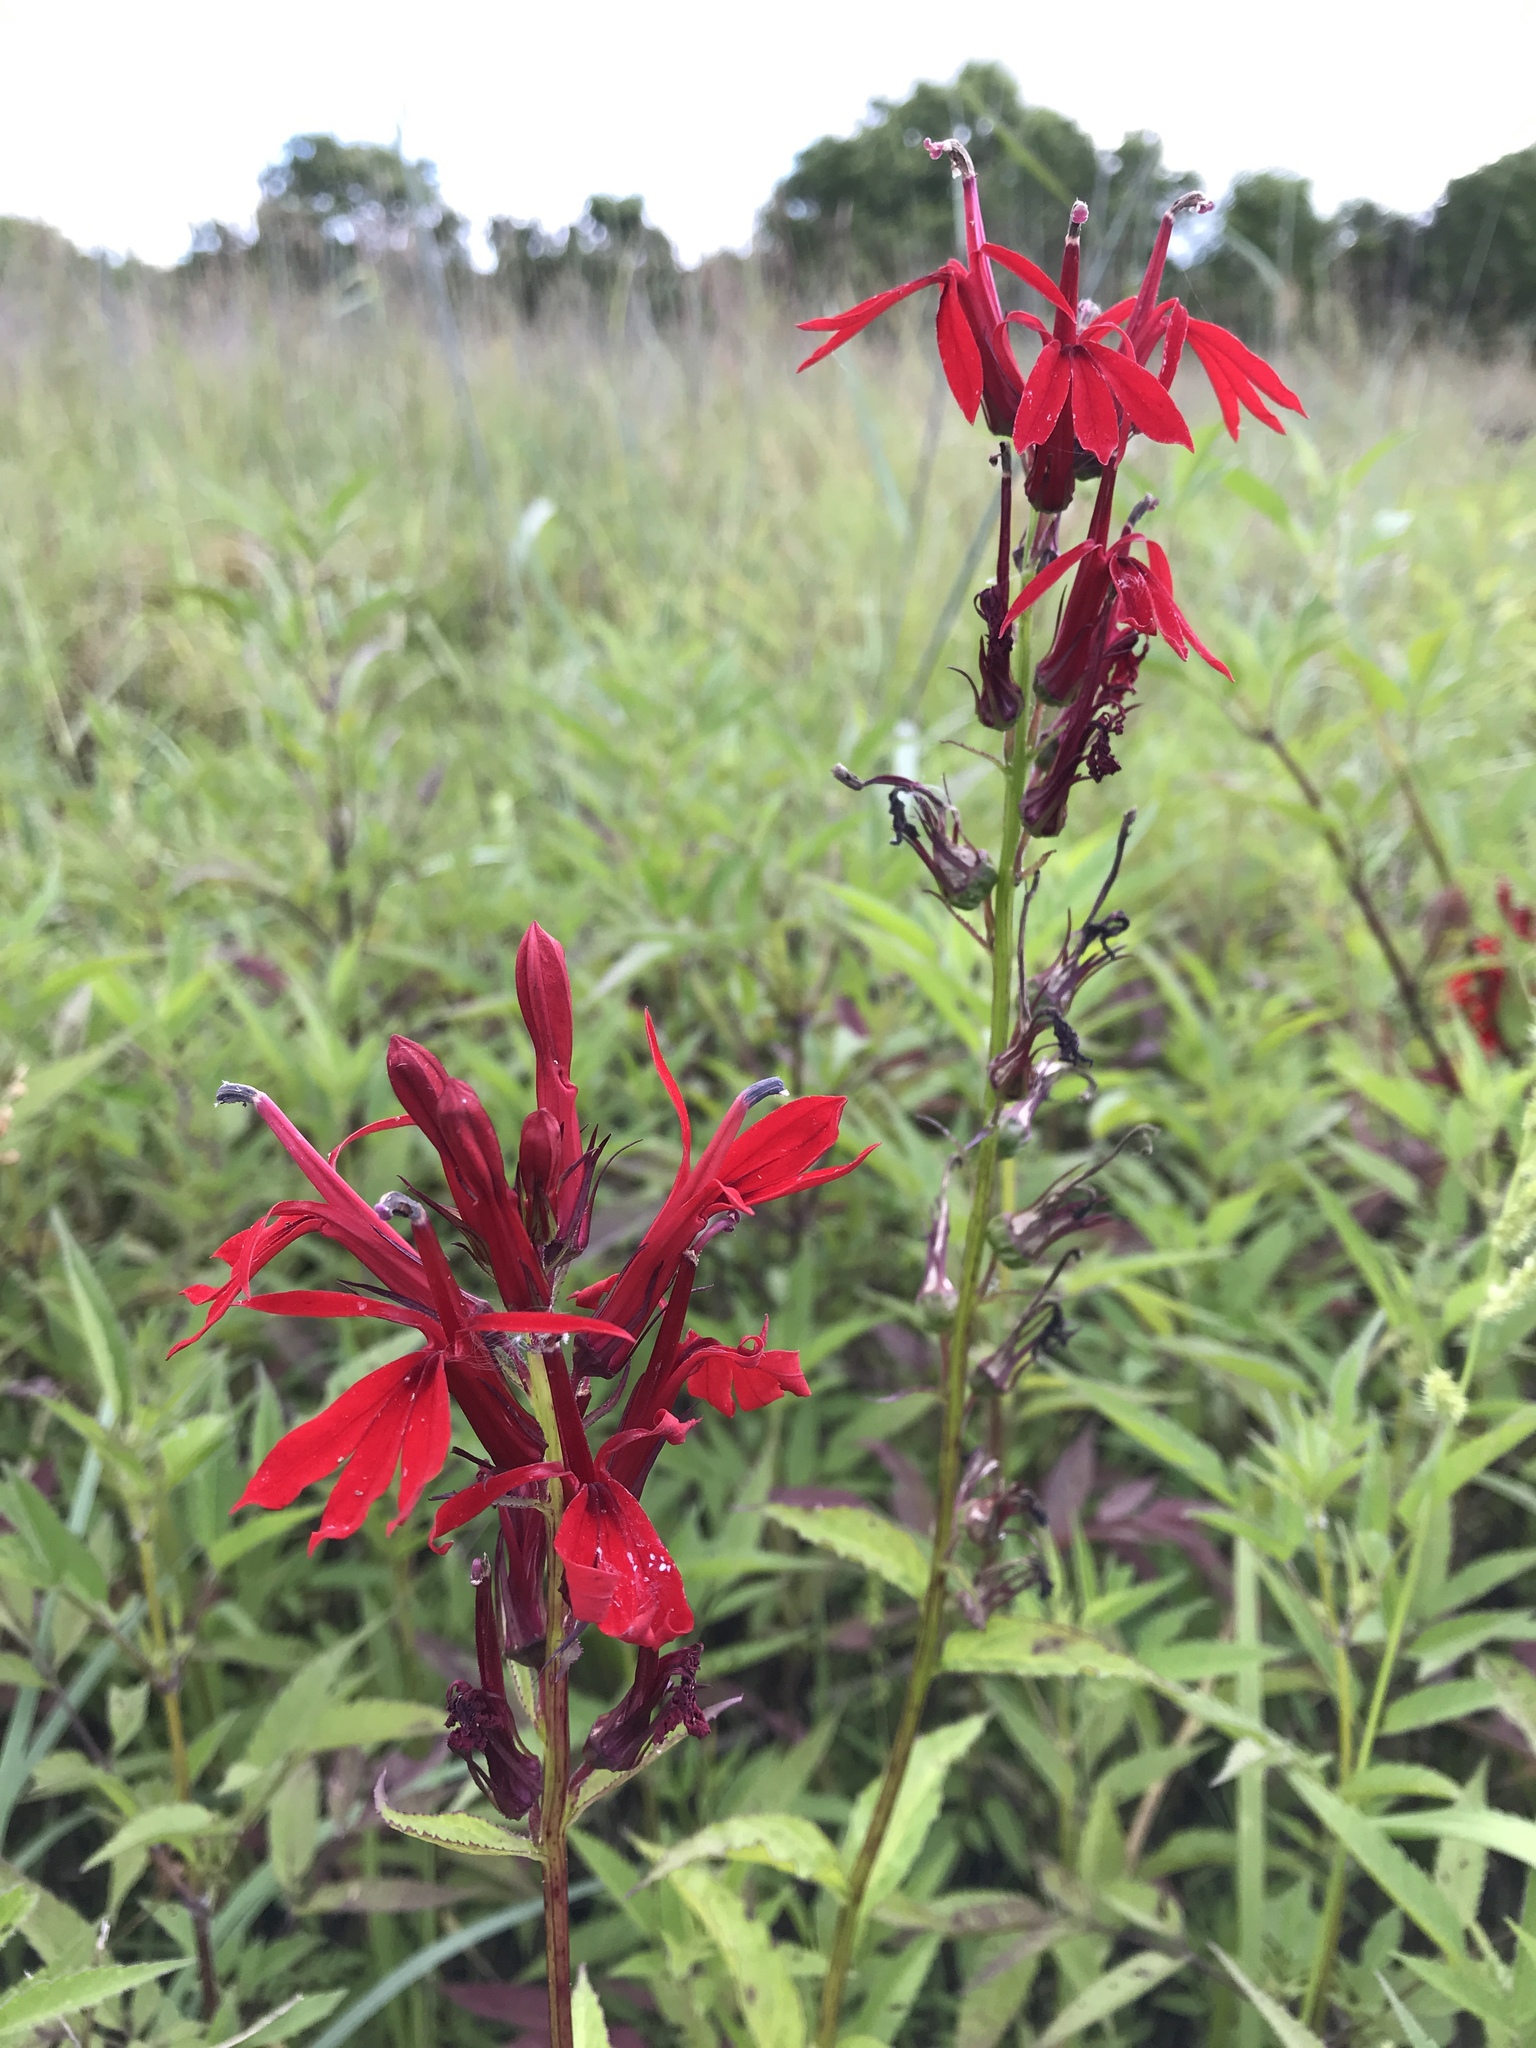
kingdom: Plantae
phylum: Tracheophyta
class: Magnoliopsida
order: Asterales
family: Campanulaceae
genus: Lobelia
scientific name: Lobelia cardinalis
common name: Cardinal flower
